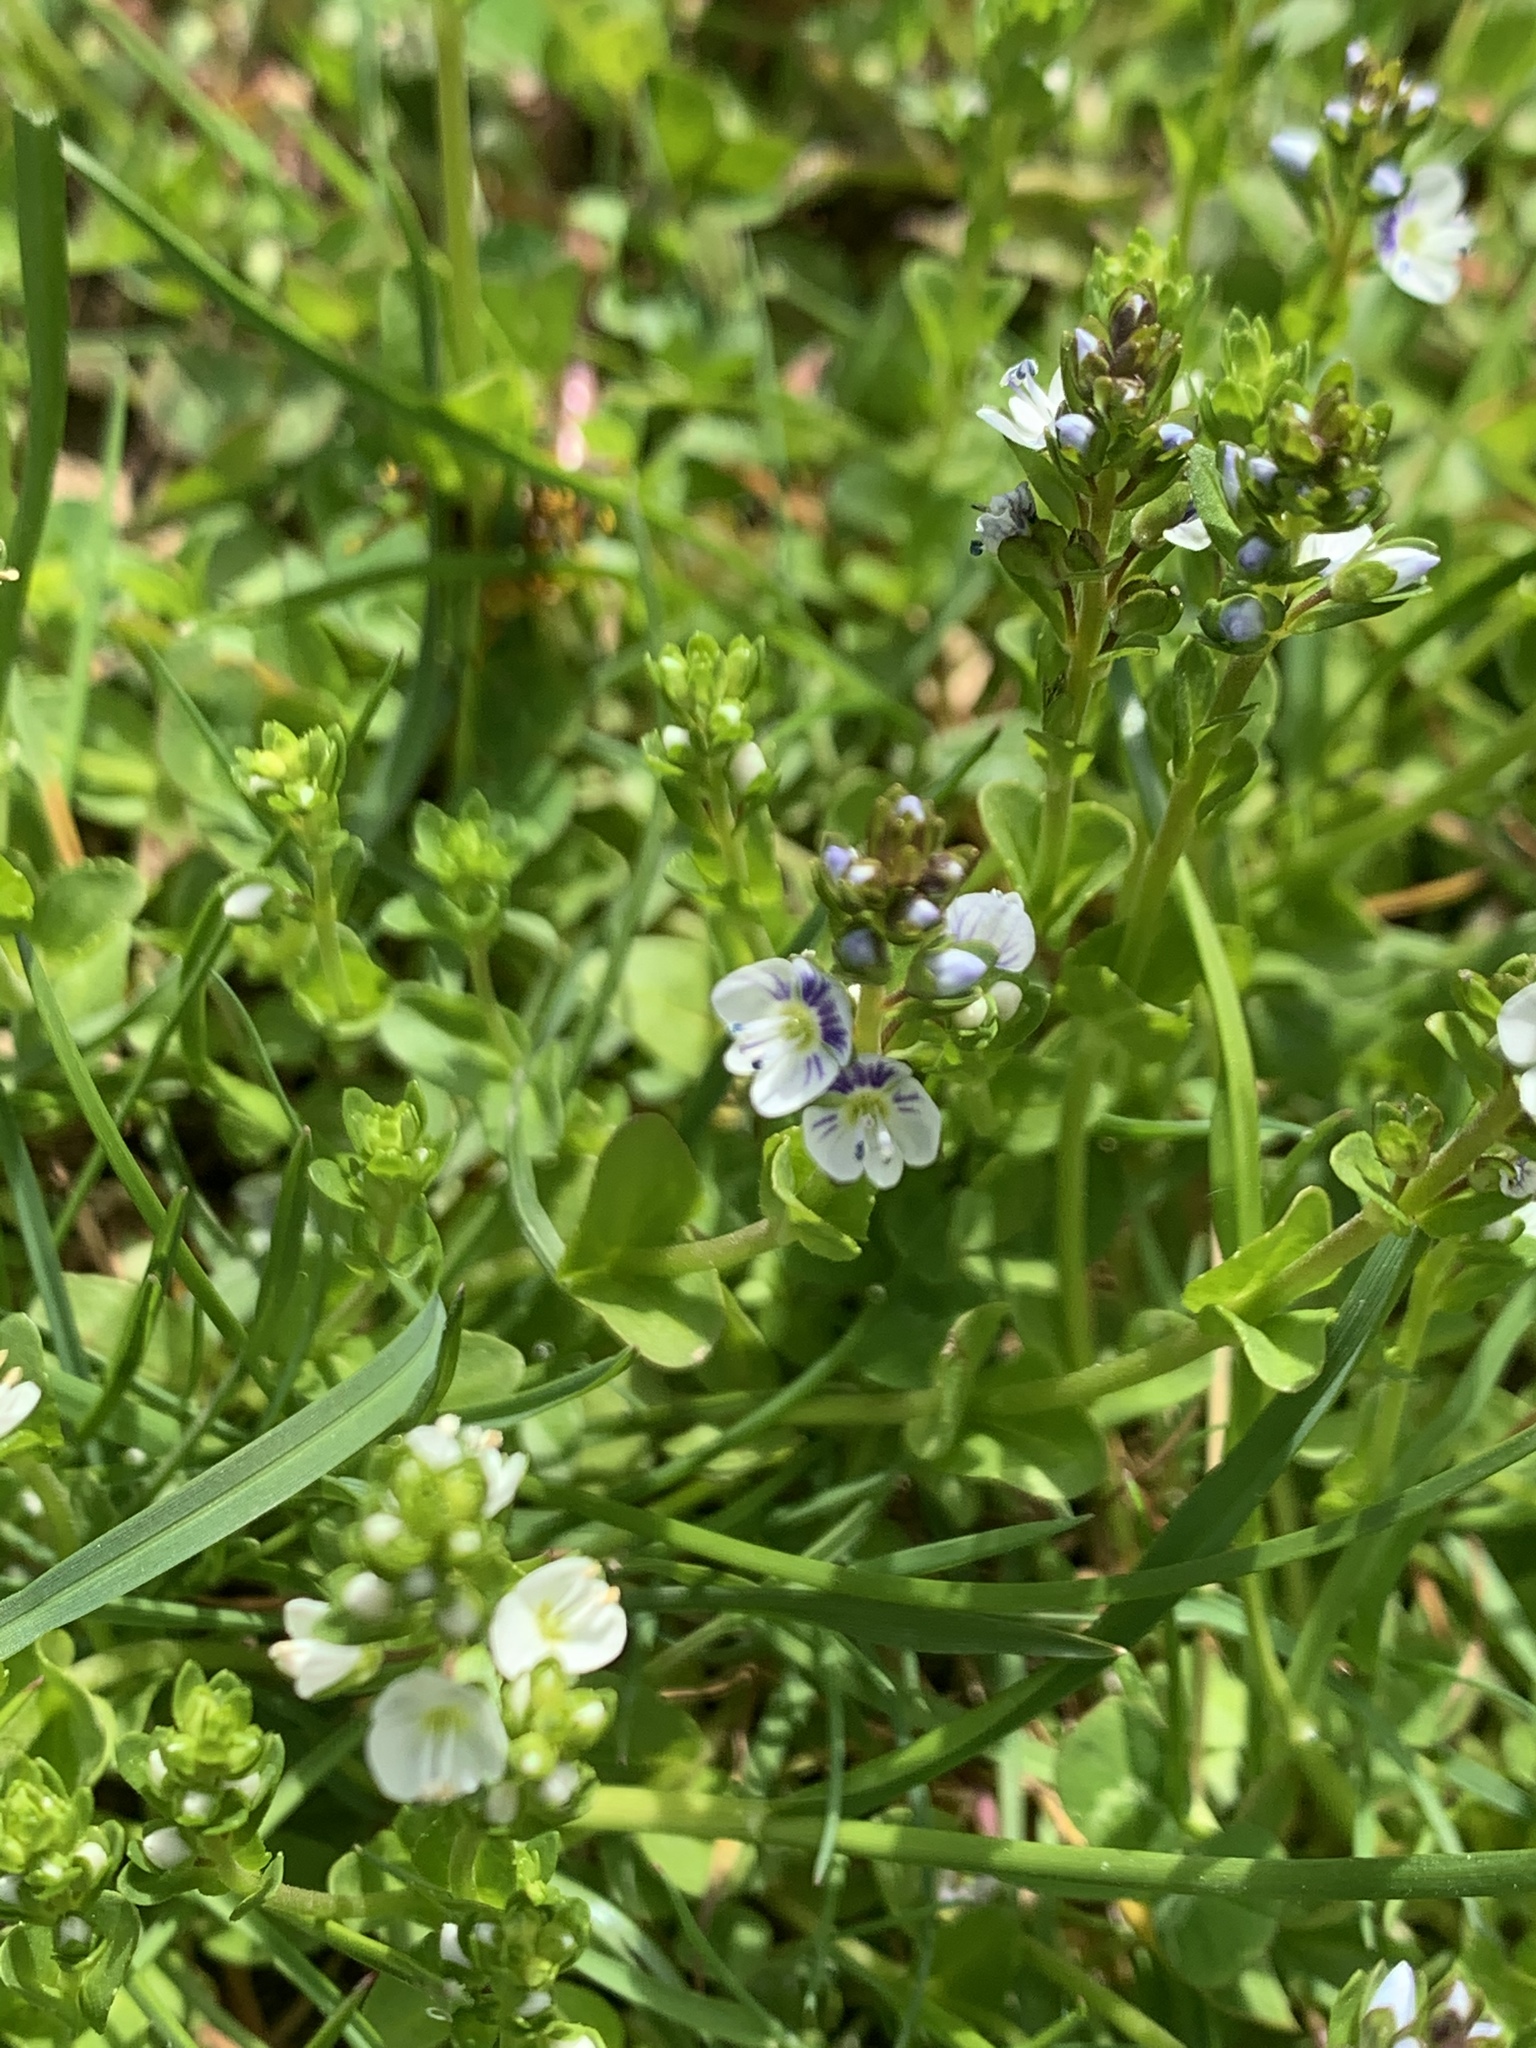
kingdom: Plantae
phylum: Tracheophyta
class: Magnoliopsida
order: Lamiales
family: Plantaginaceae
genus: Veronica
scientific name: Veronica serpyllifolia
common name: Thyme-leaved speedwell
